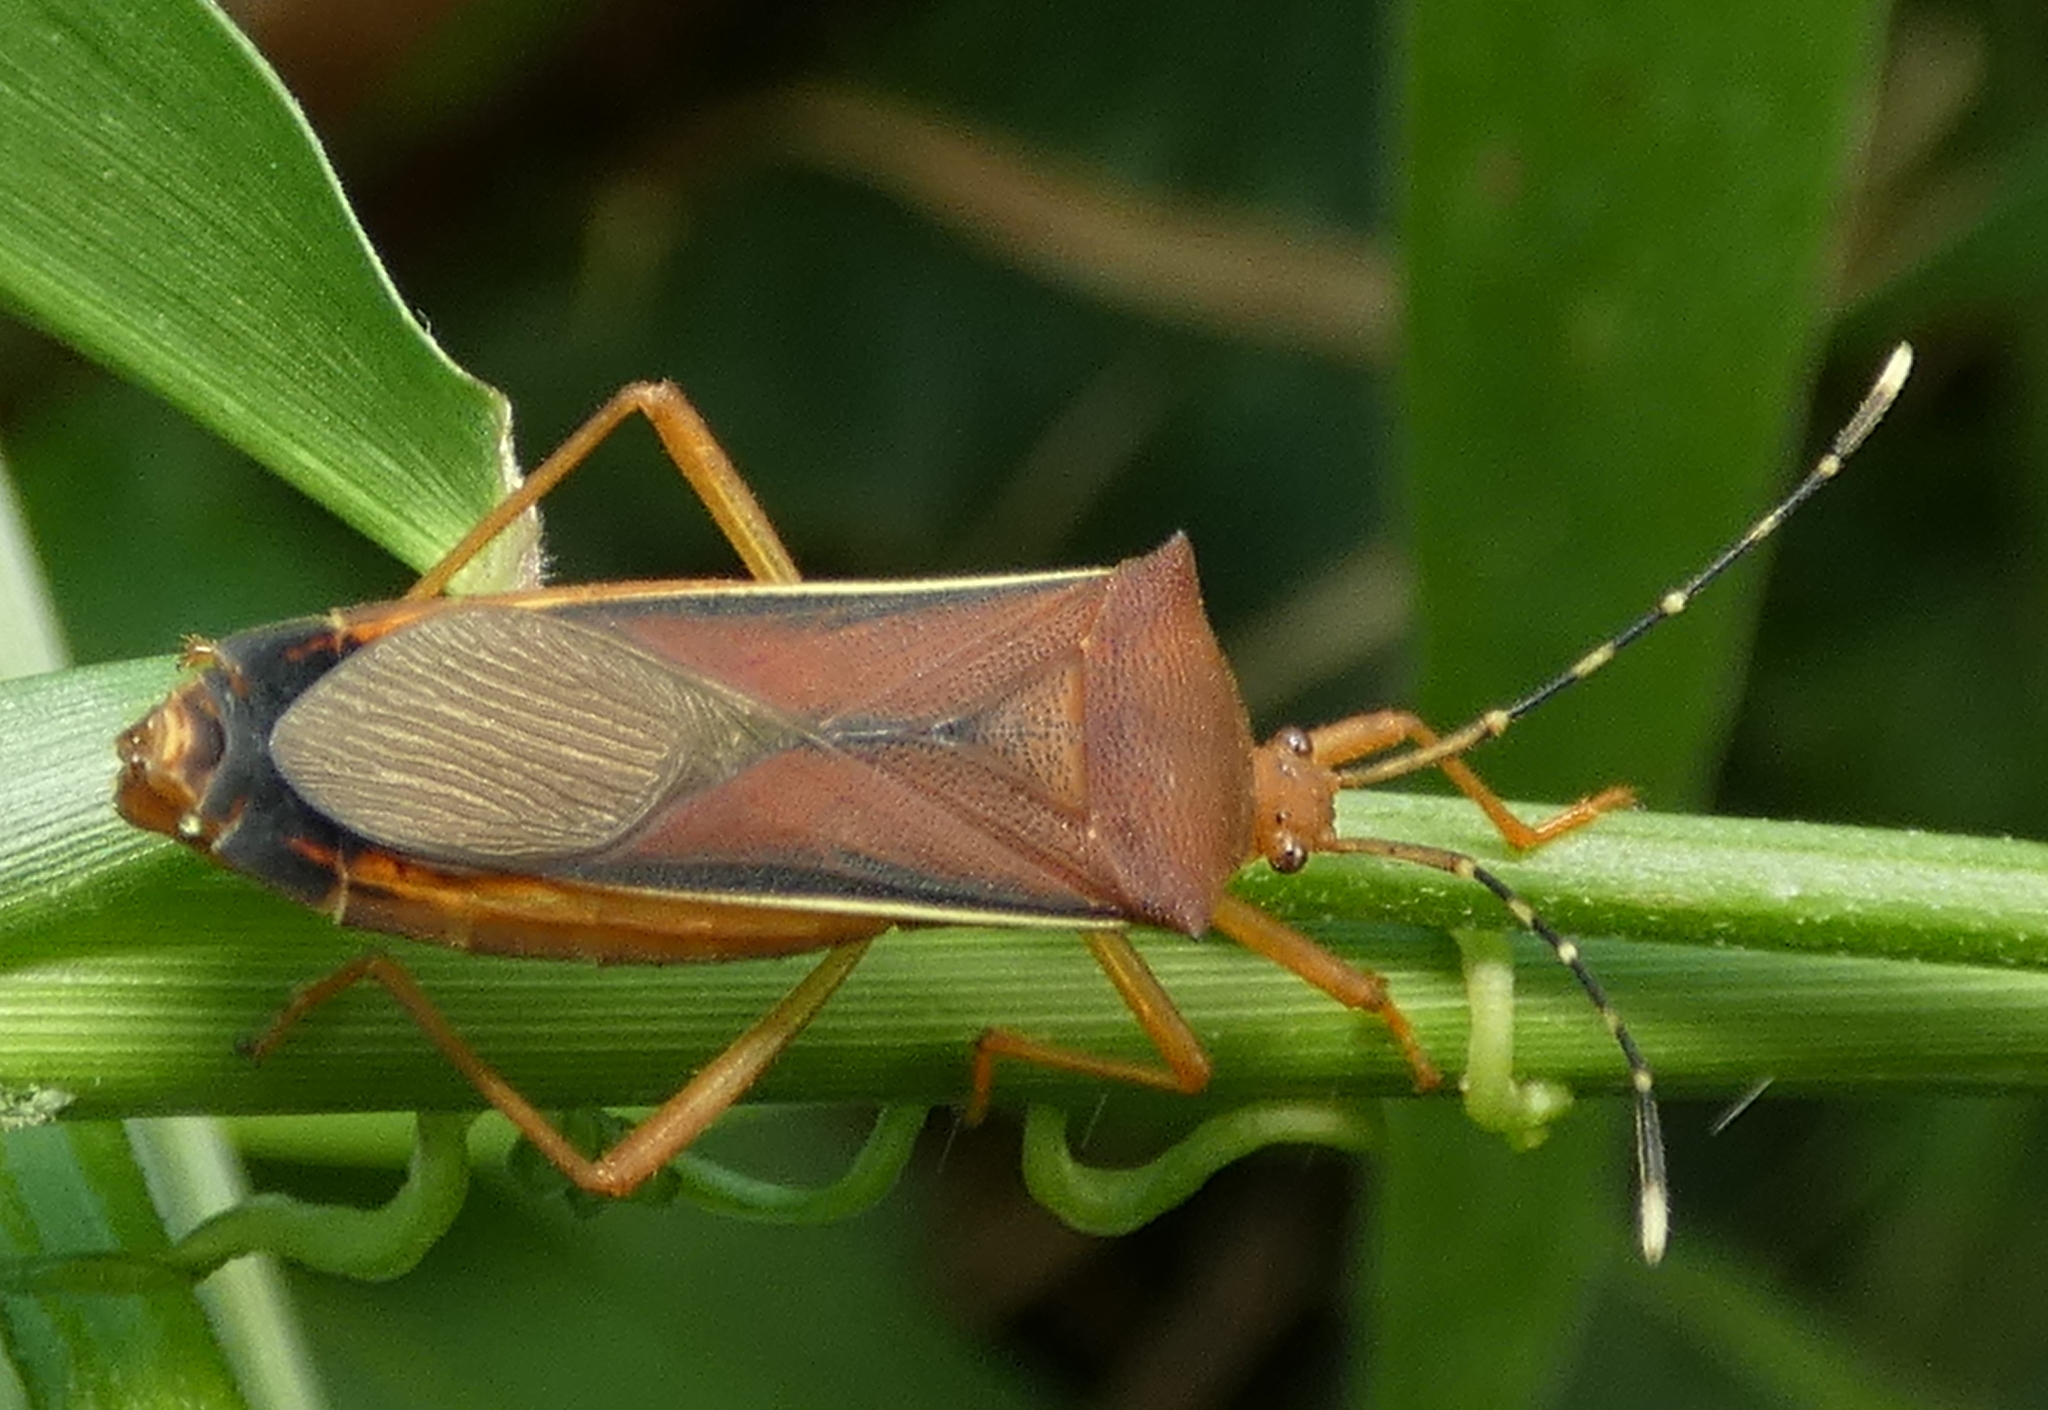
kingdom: Animalia
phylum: Arthropoda
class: Insecta
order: Hemiptera
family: Coreidae
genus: Anasa
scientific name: Anasa varicornis
